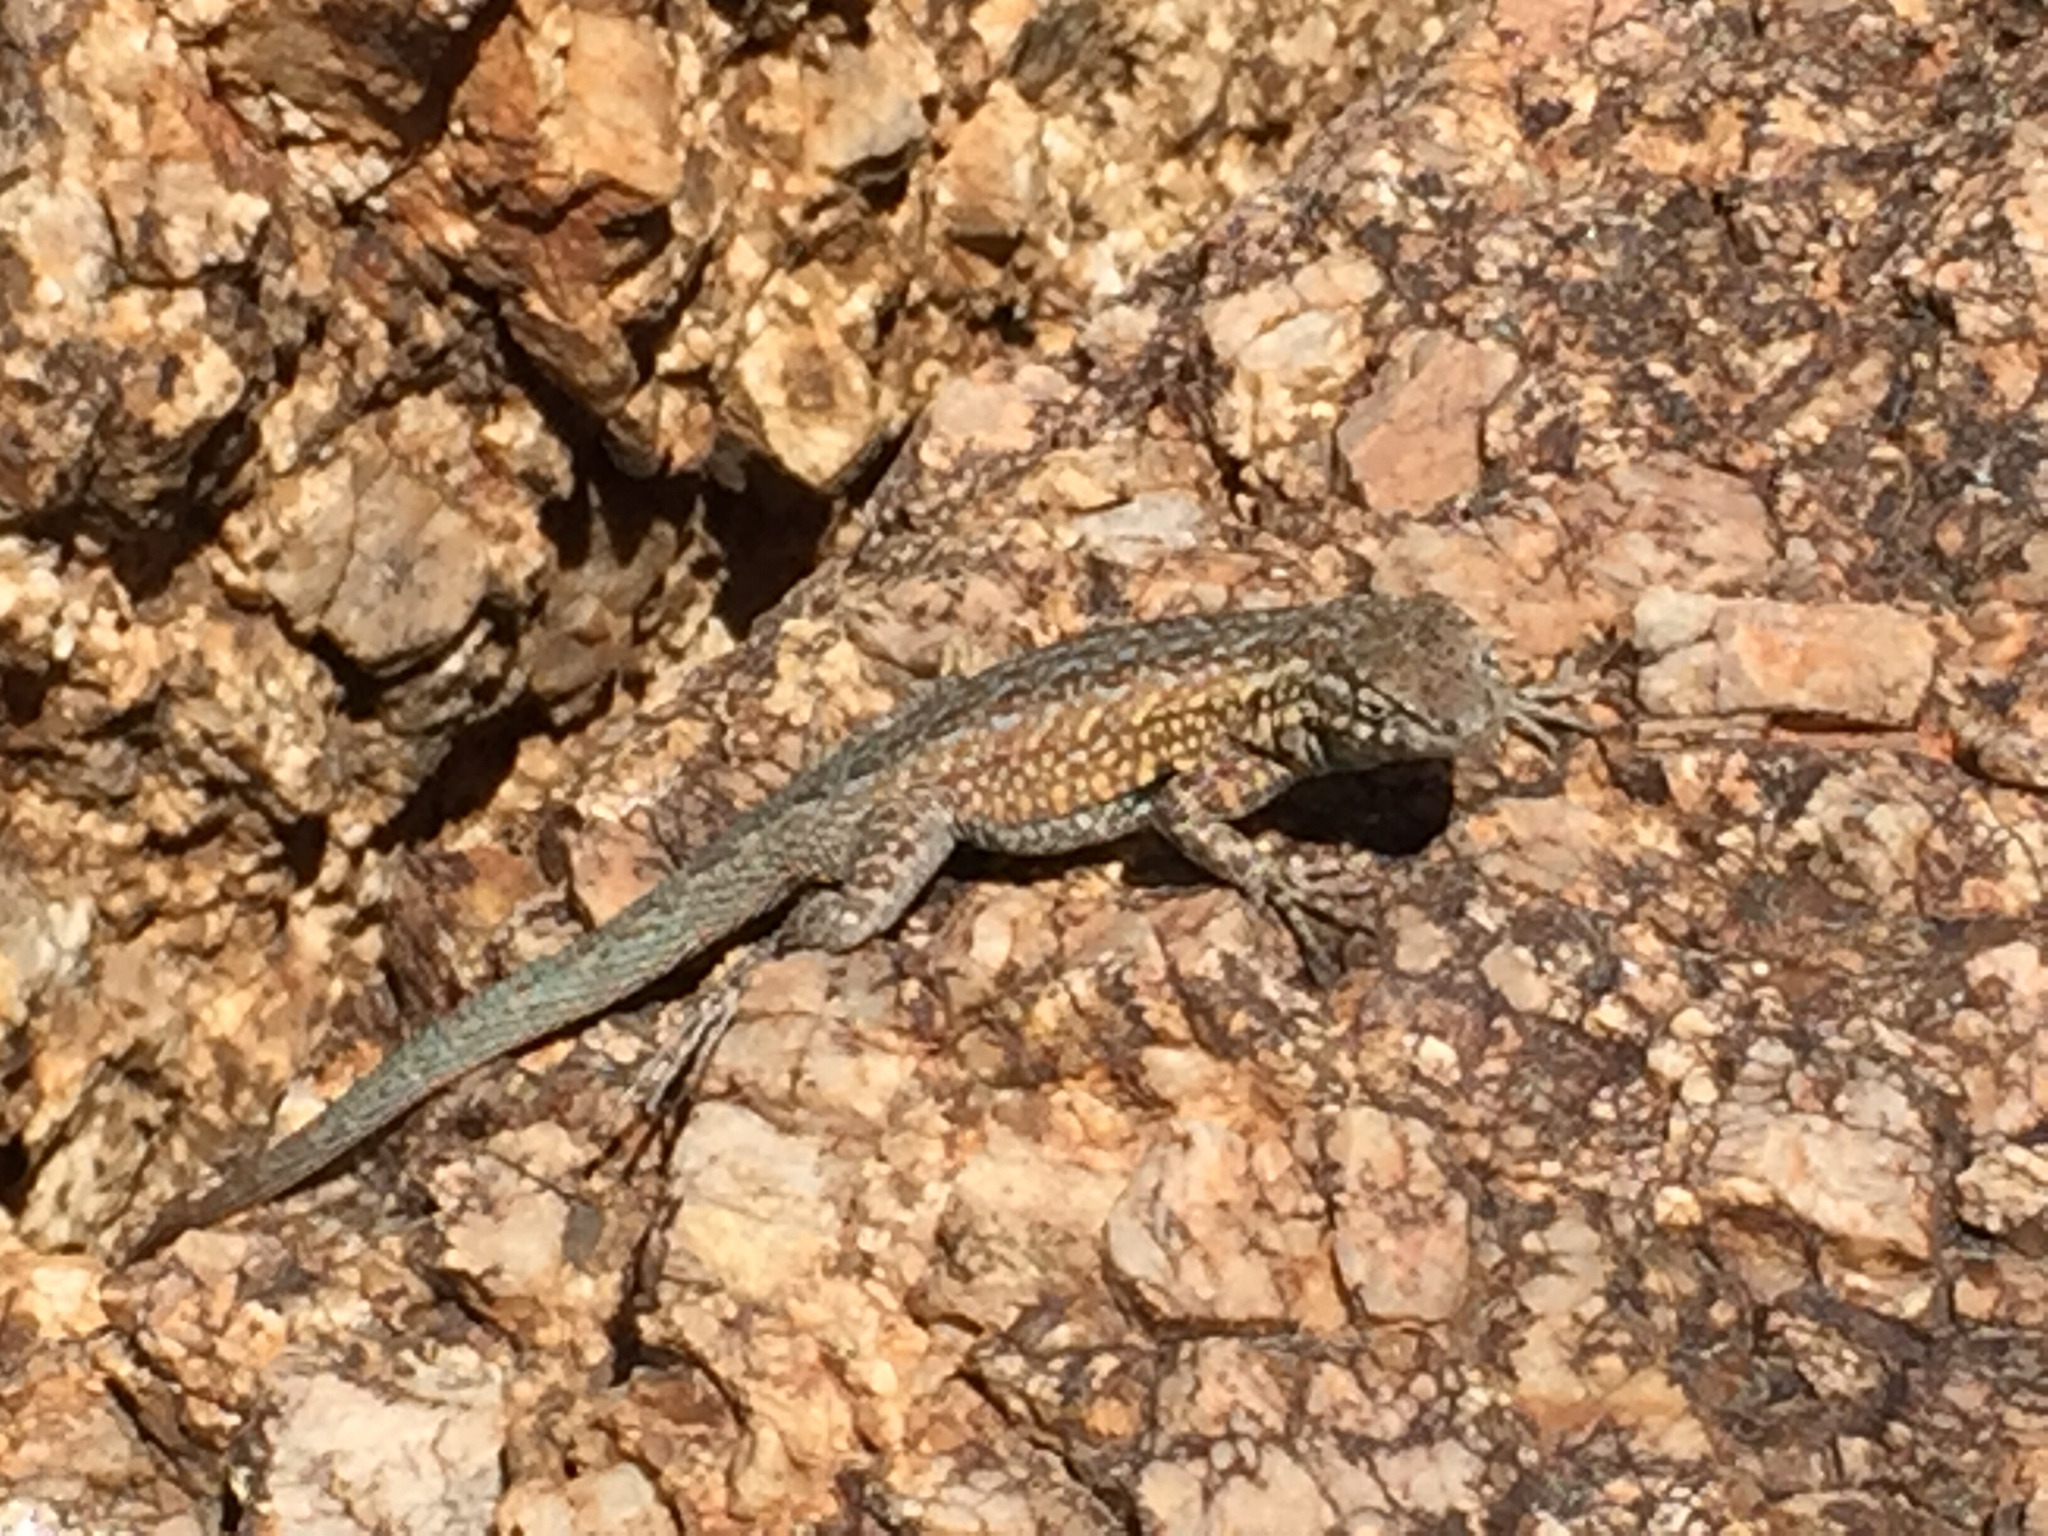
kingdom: Animalia
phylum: Chordata
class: Squamata
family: Phrynosomatidae
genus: Uta
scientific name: Uta stansburiana
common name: Side-blotched lizard
